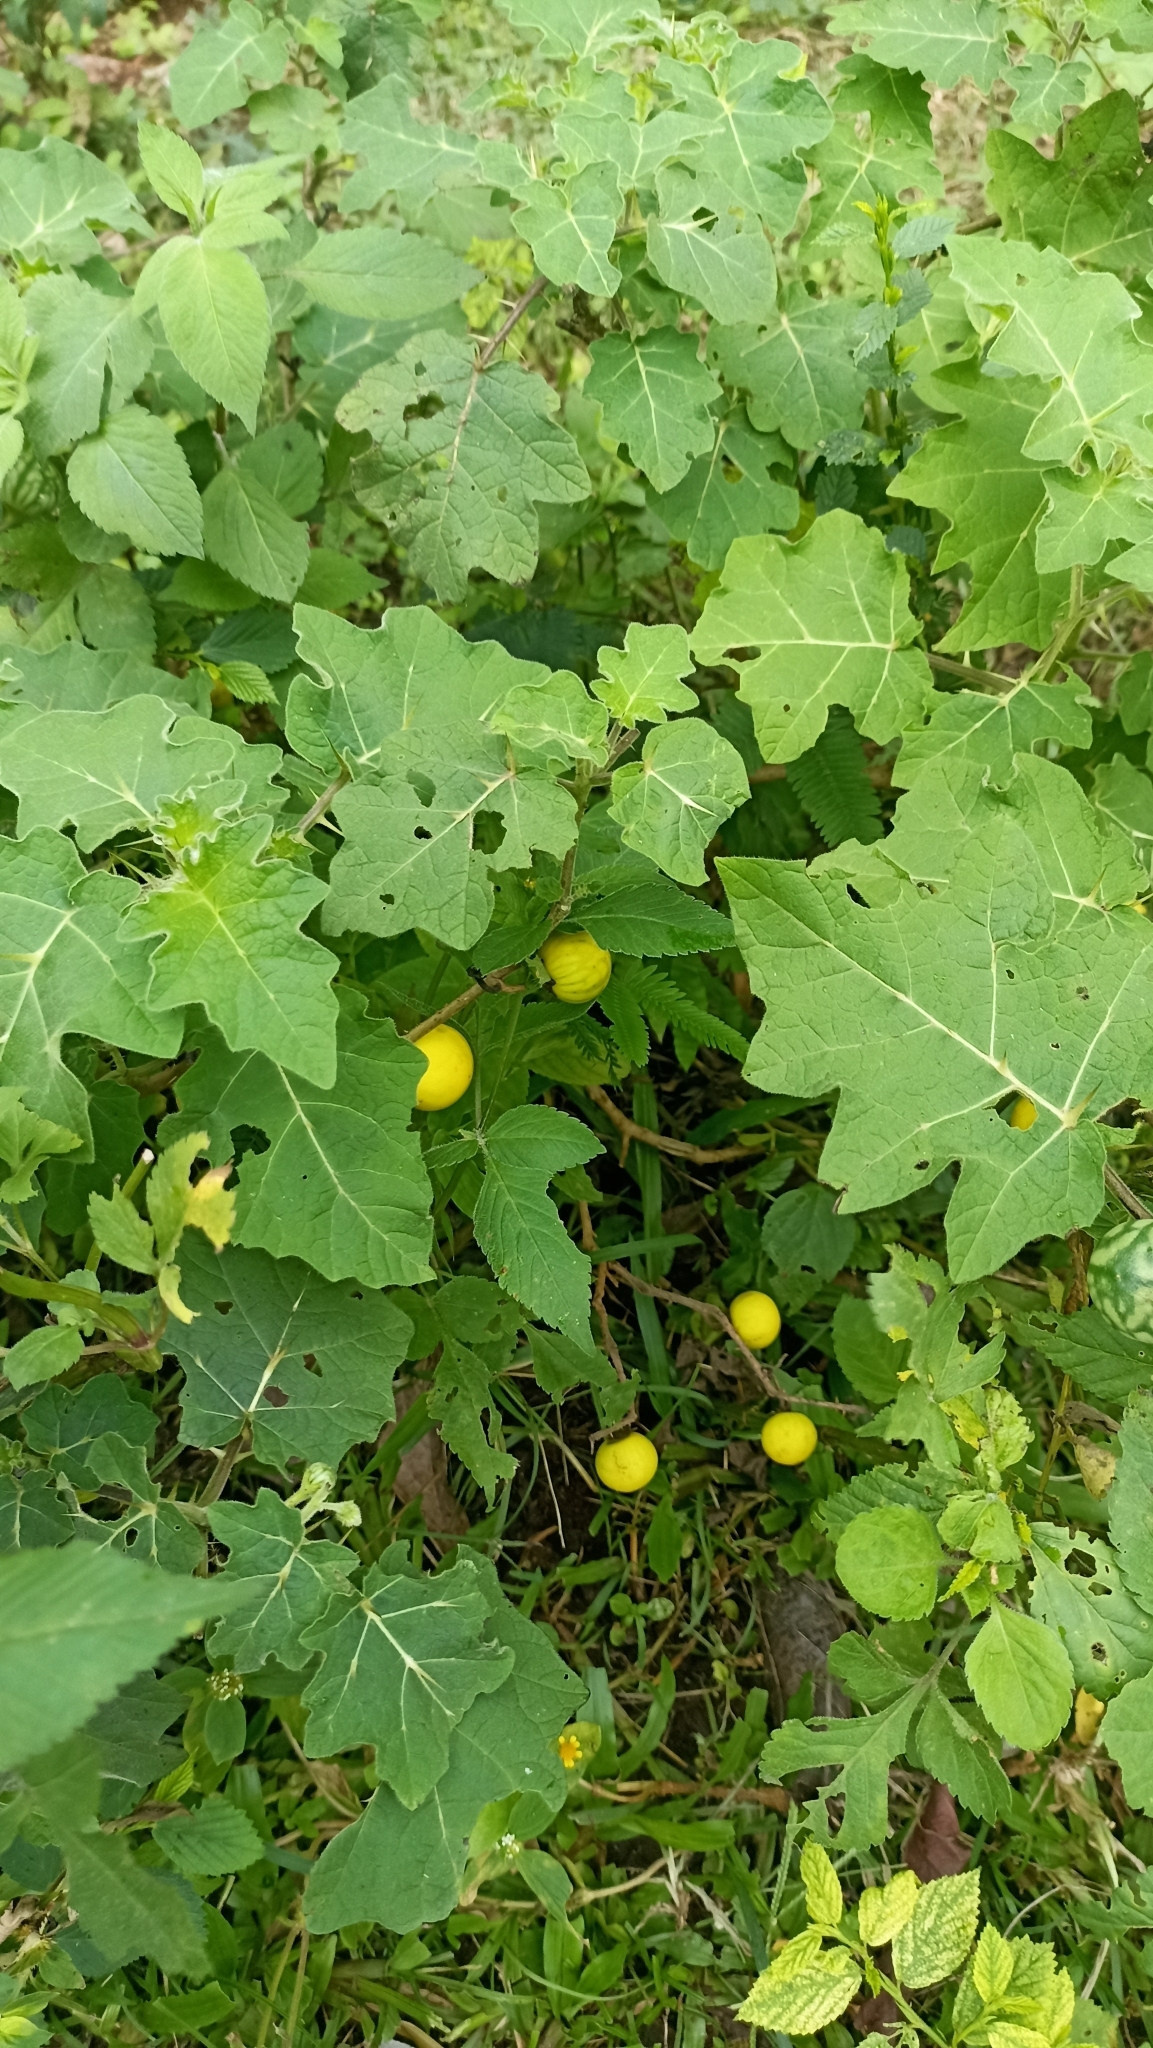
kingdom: Plantae
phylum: Tracheophyta
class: Magnoliopsida
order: Solanales
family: Solanaceae
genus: Solanum
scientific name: Solanum viarum
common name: Tropical soda apple
